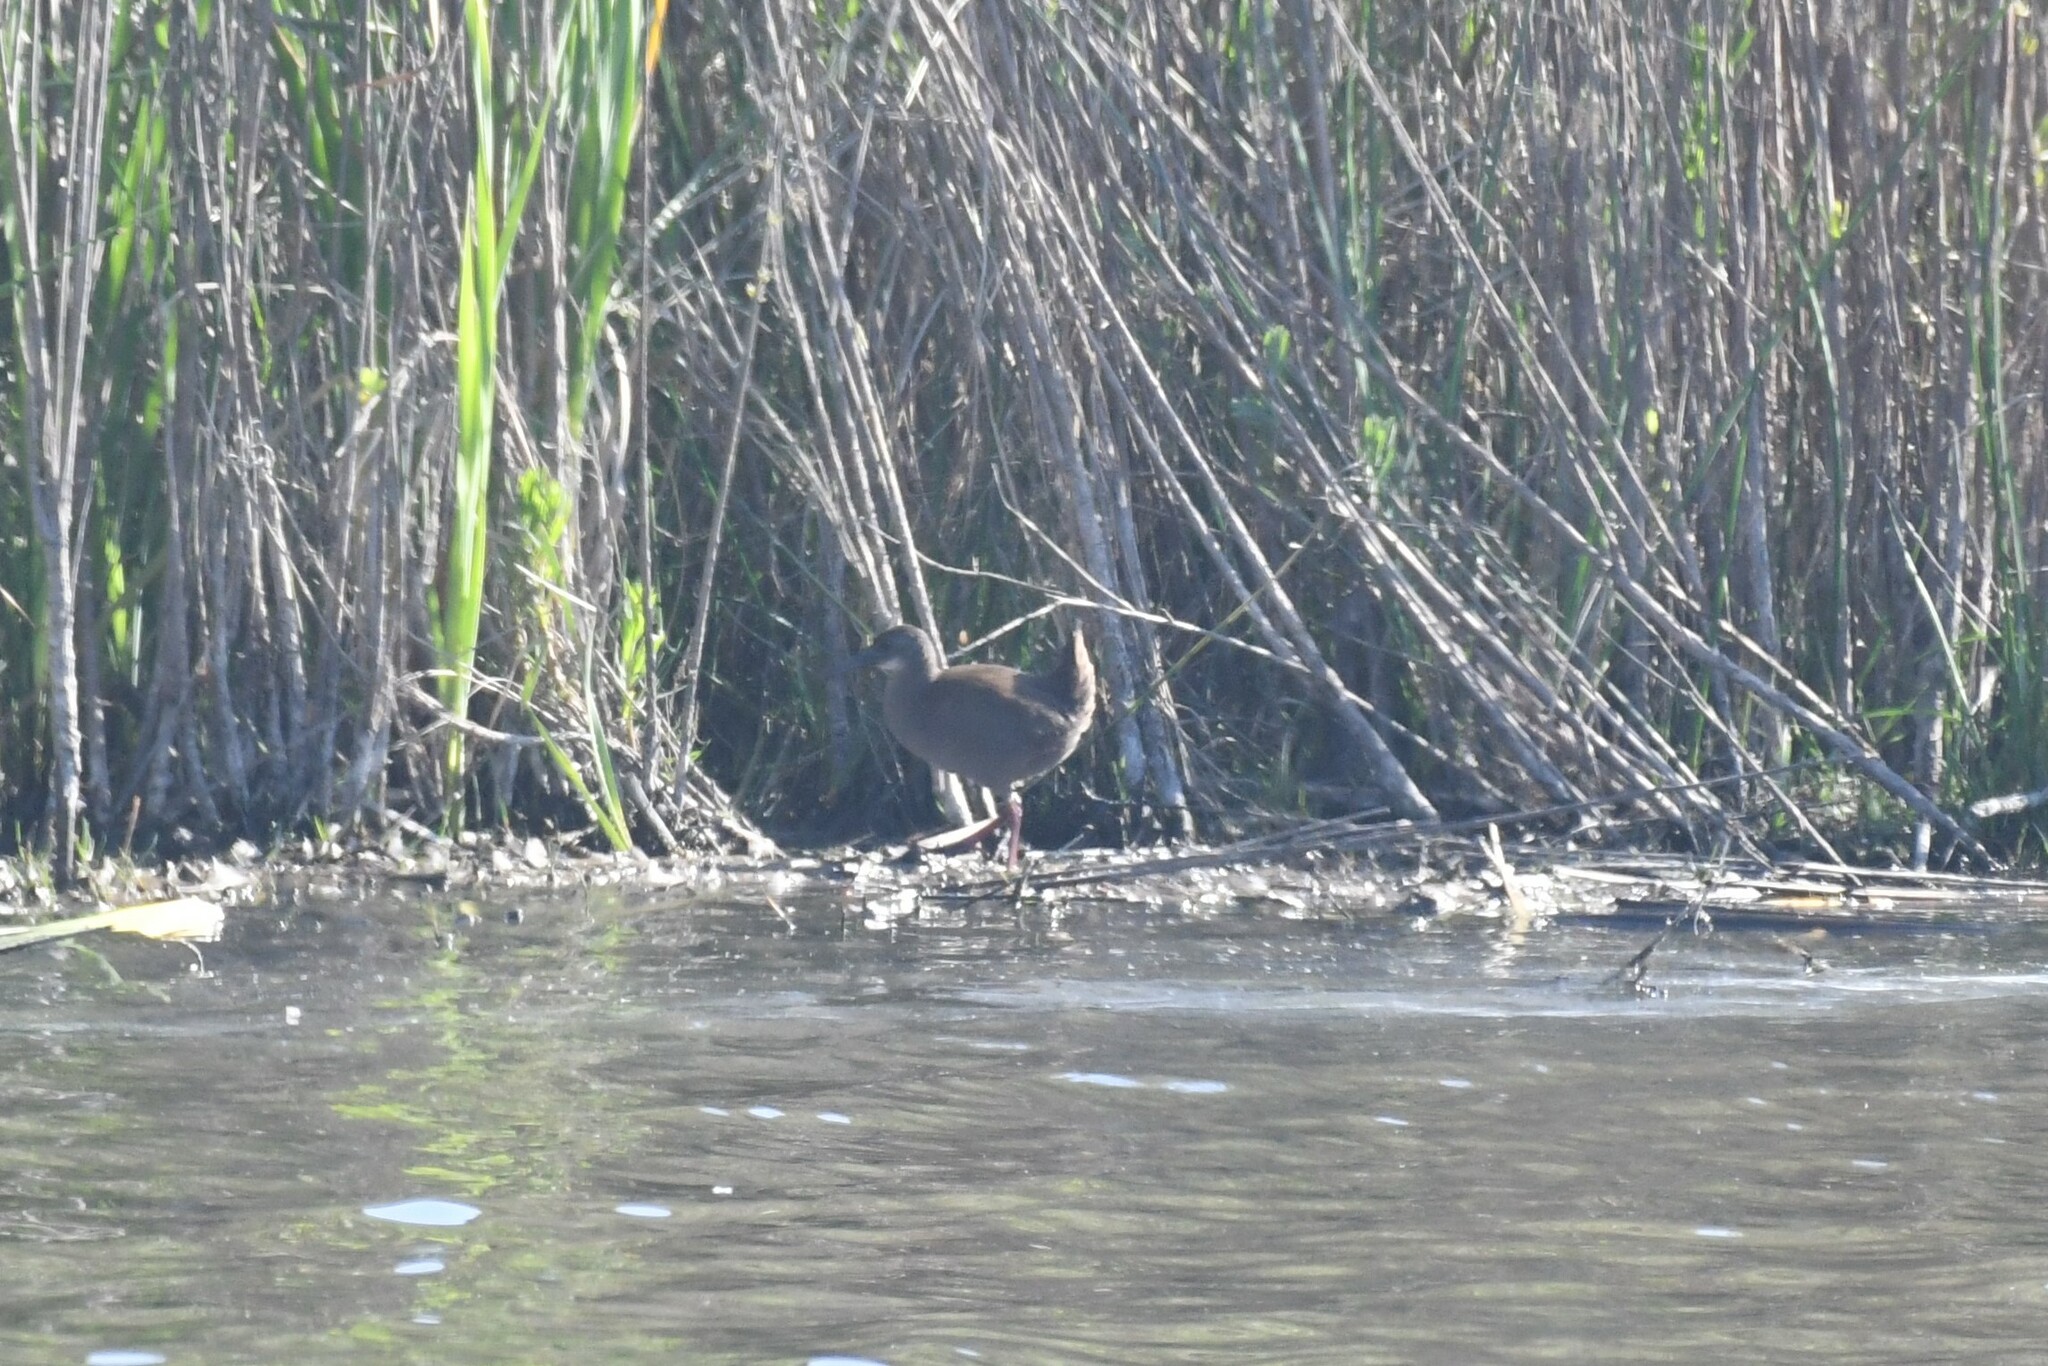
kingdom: Animalia
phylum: Chordata
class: Aves
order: Gruiformes
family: Rallidae
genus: Pardirallus
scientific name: Pardirallus sanguinolentus
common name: Plumbeous rail
